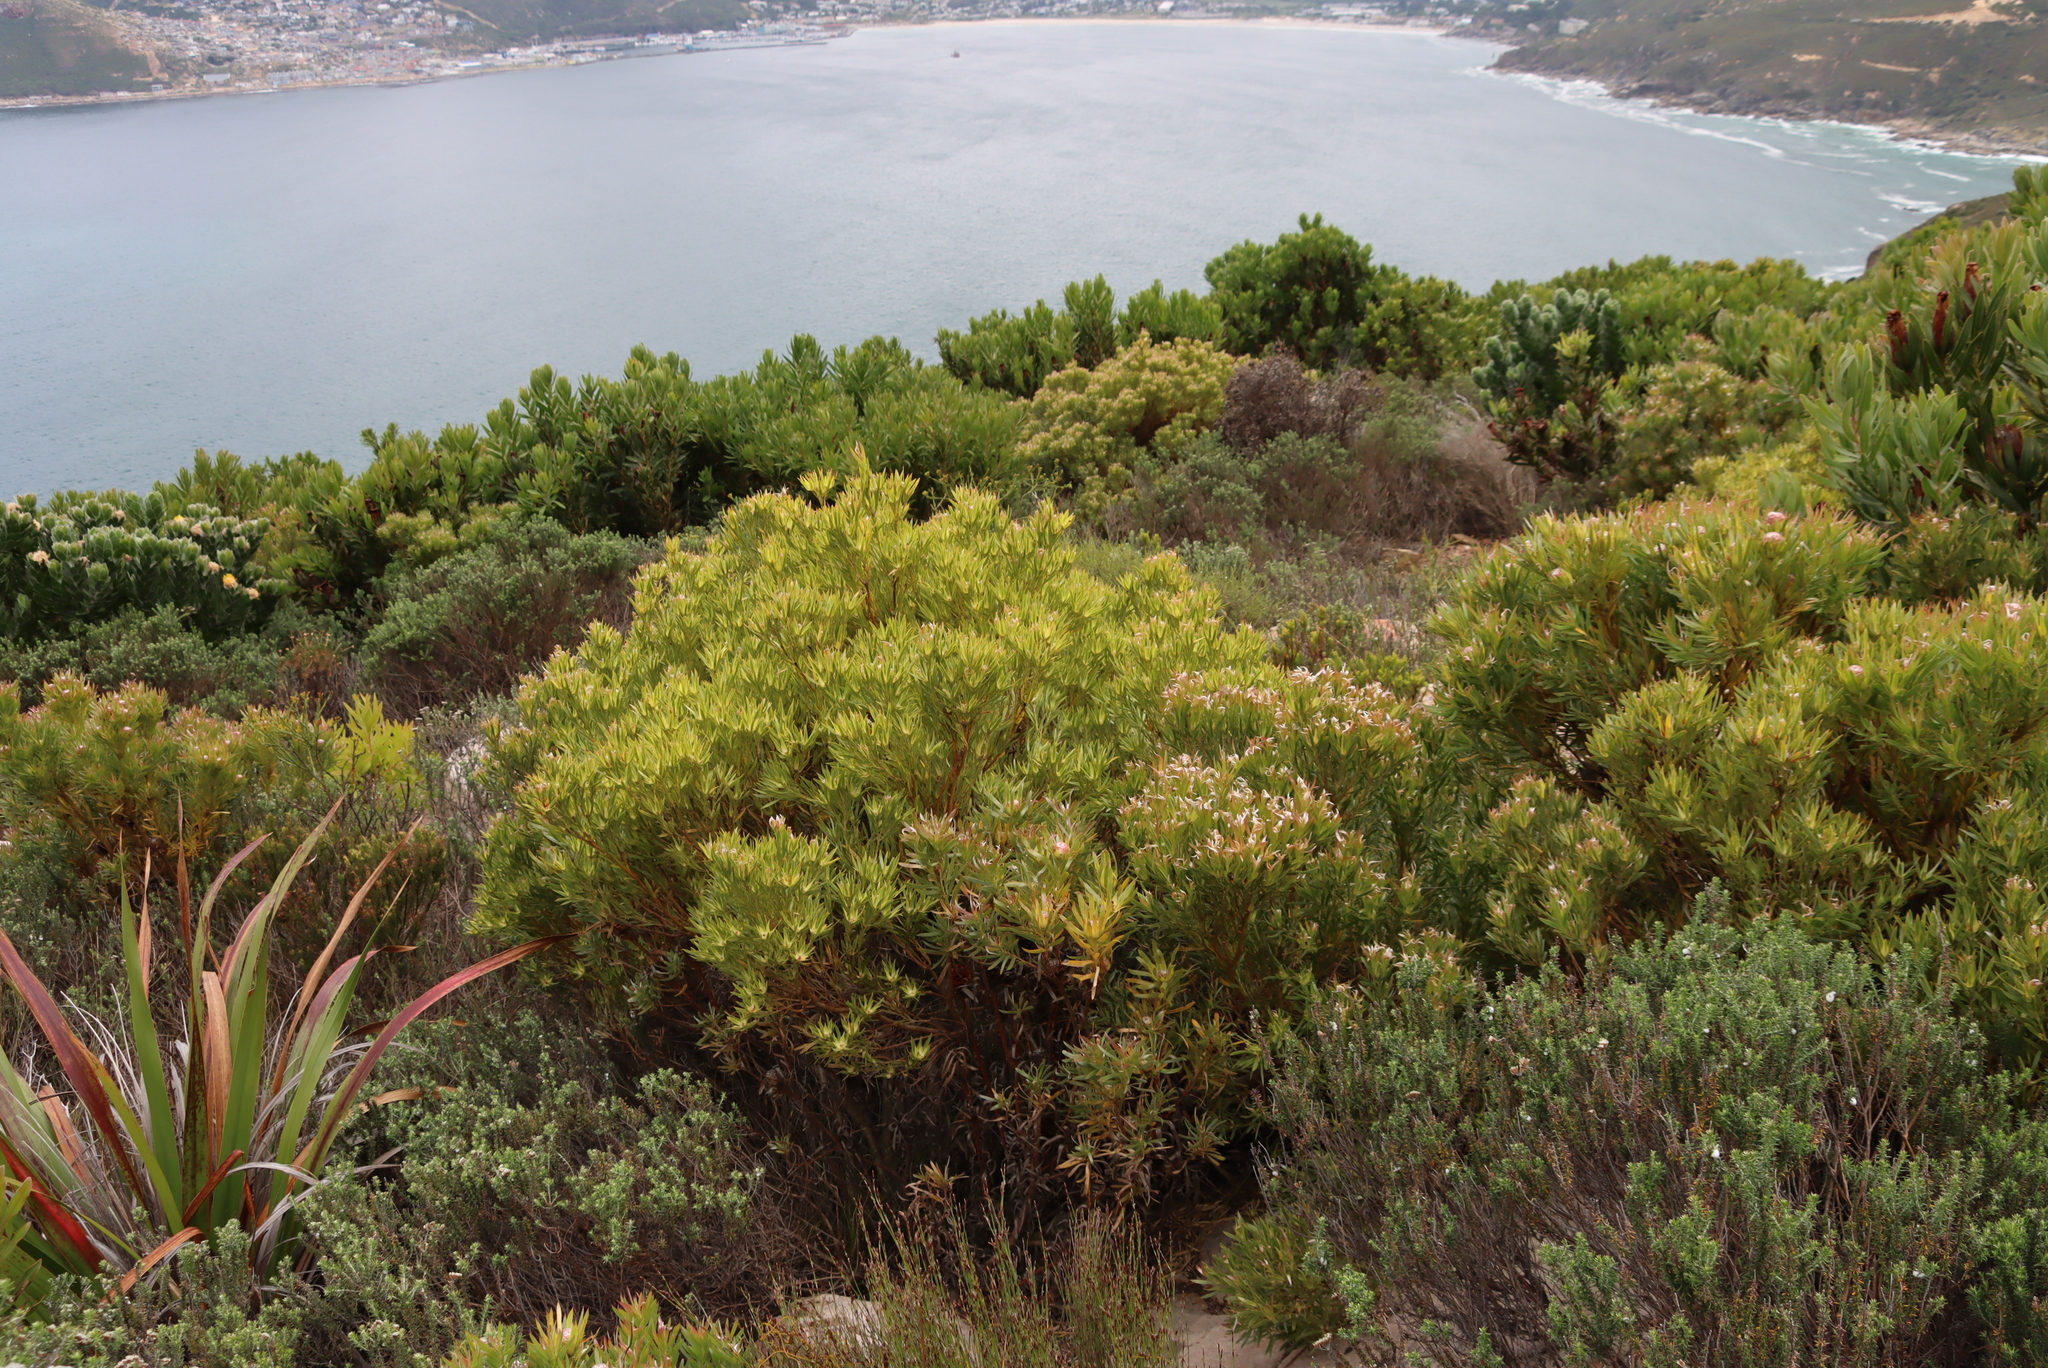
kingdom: Plantae
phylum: Tracheophyta
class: Magnoliopsida
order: Proteales
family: Proteaceae
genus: Leucadendron
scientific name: Leucadendron xanthoconus
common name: Sickle-leaf conebush
